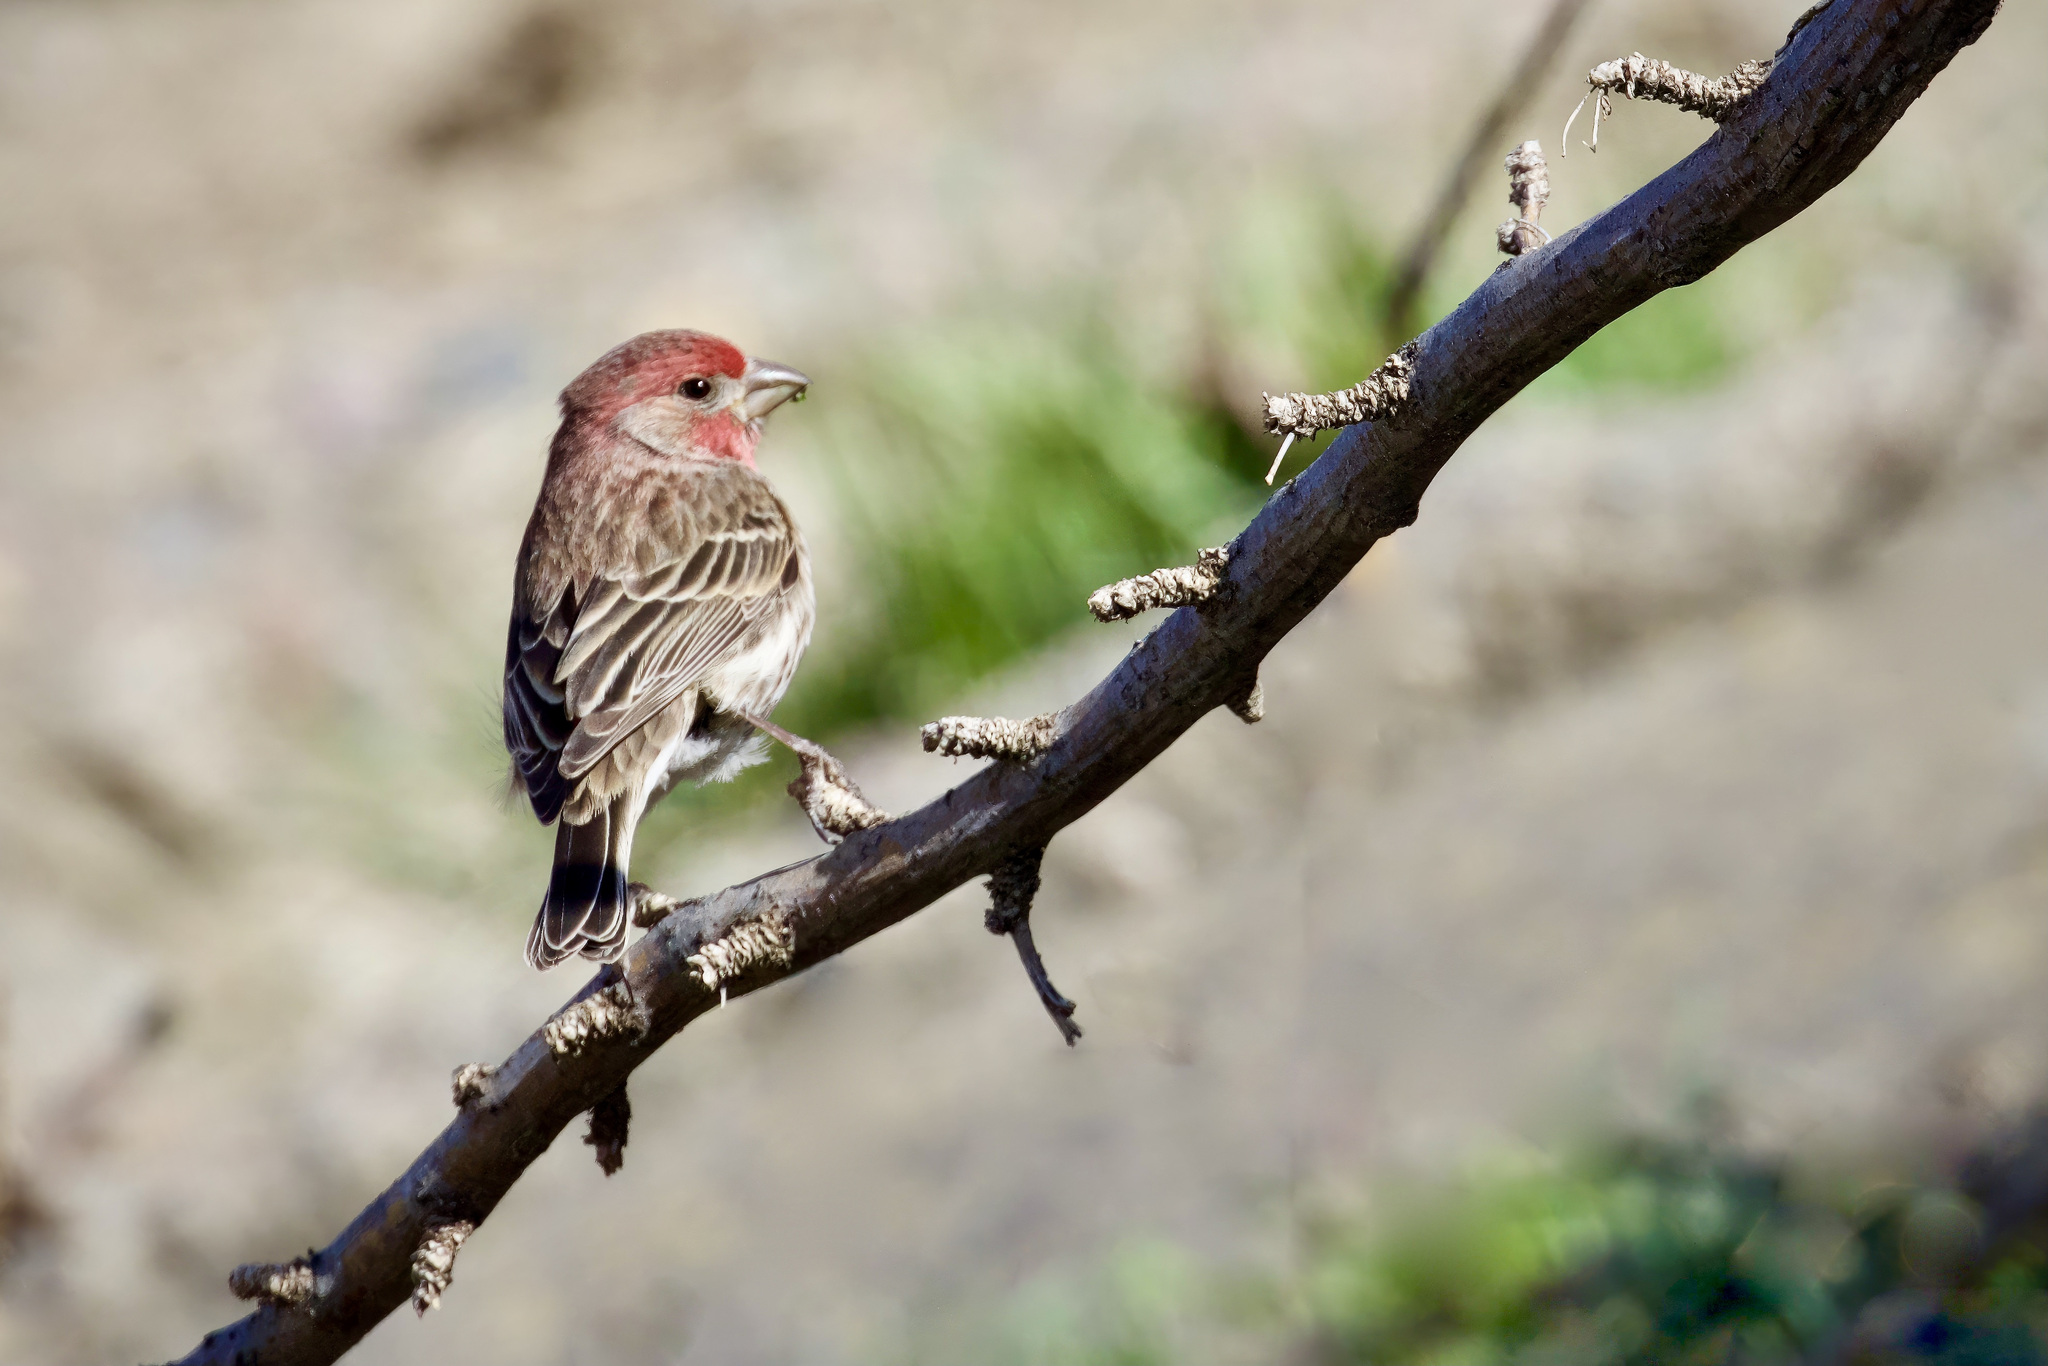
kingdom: Animalia
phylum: Chordata
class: Aves
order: Passeriformes
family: Fringillidae
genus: Haemorhous
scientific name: Haemorhous mexicanus
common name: House finch
